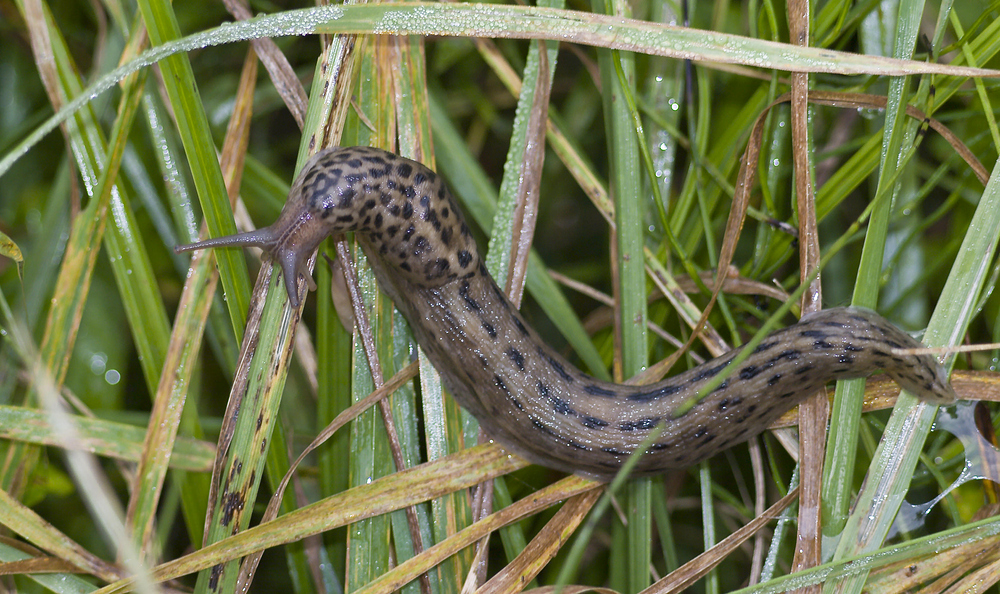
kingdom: Animalia
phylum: Mollusca
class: Gastropoda
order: Stylommatophora
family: Limacidae
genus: Limax
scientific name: Limax maximus
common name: Great grey slug
